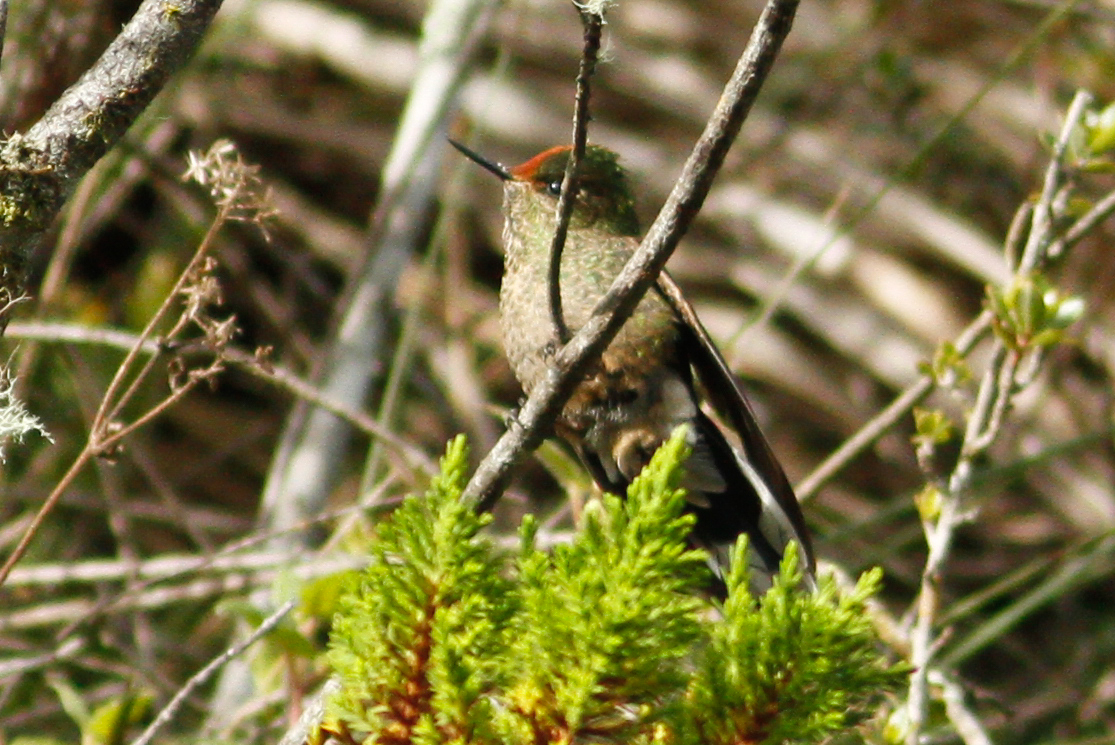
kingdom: Animalia
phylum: Chordata
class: Aves
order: Apodiformes
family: Trochilidae
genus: Chalcostigma
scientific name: Chalcostigma herrani
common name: Rainbow-bearded thornbill
